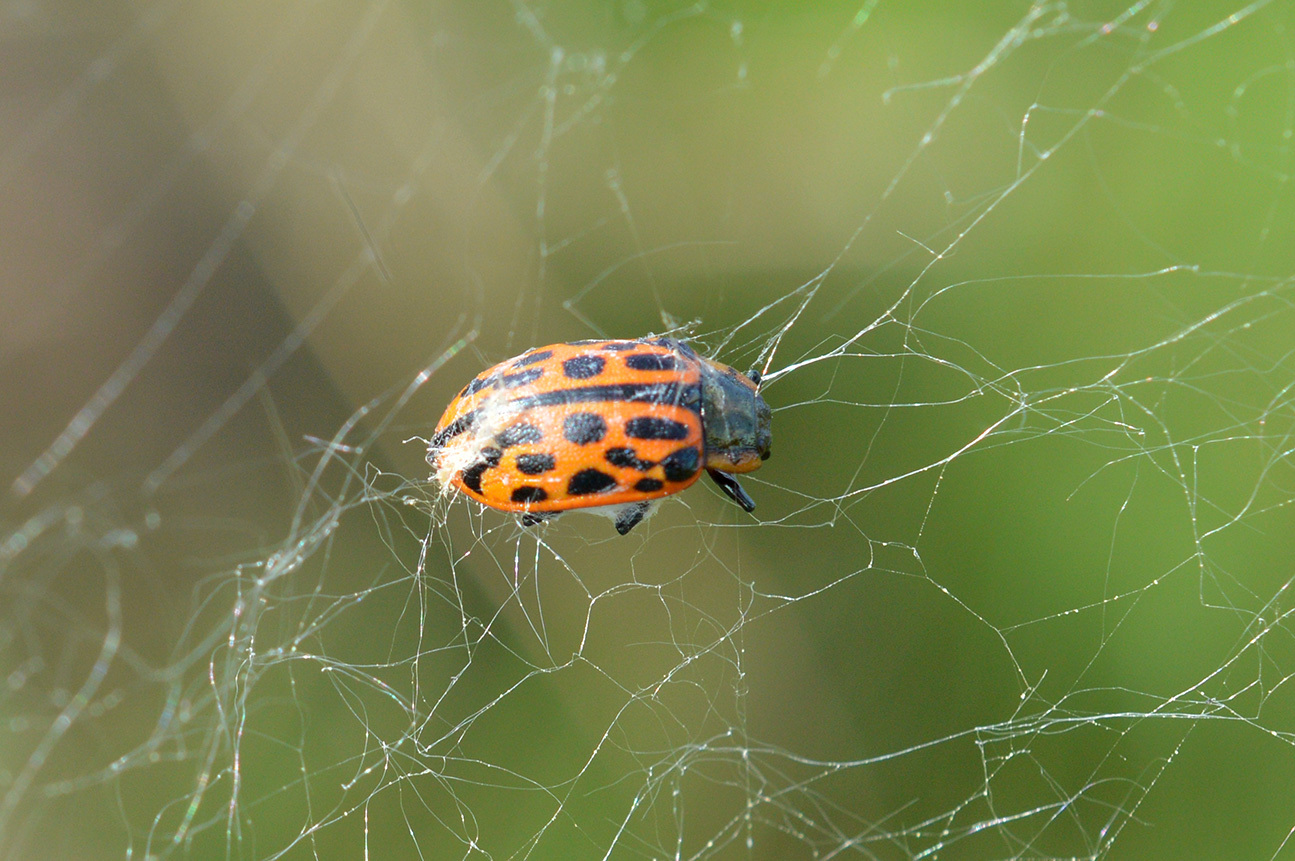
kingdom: Animalia
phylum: Arthropoda
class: Insecta
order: Coleoptera
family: Chrysomelidae
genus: Chrysomela
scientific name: Chrysomela vigintipunctata
